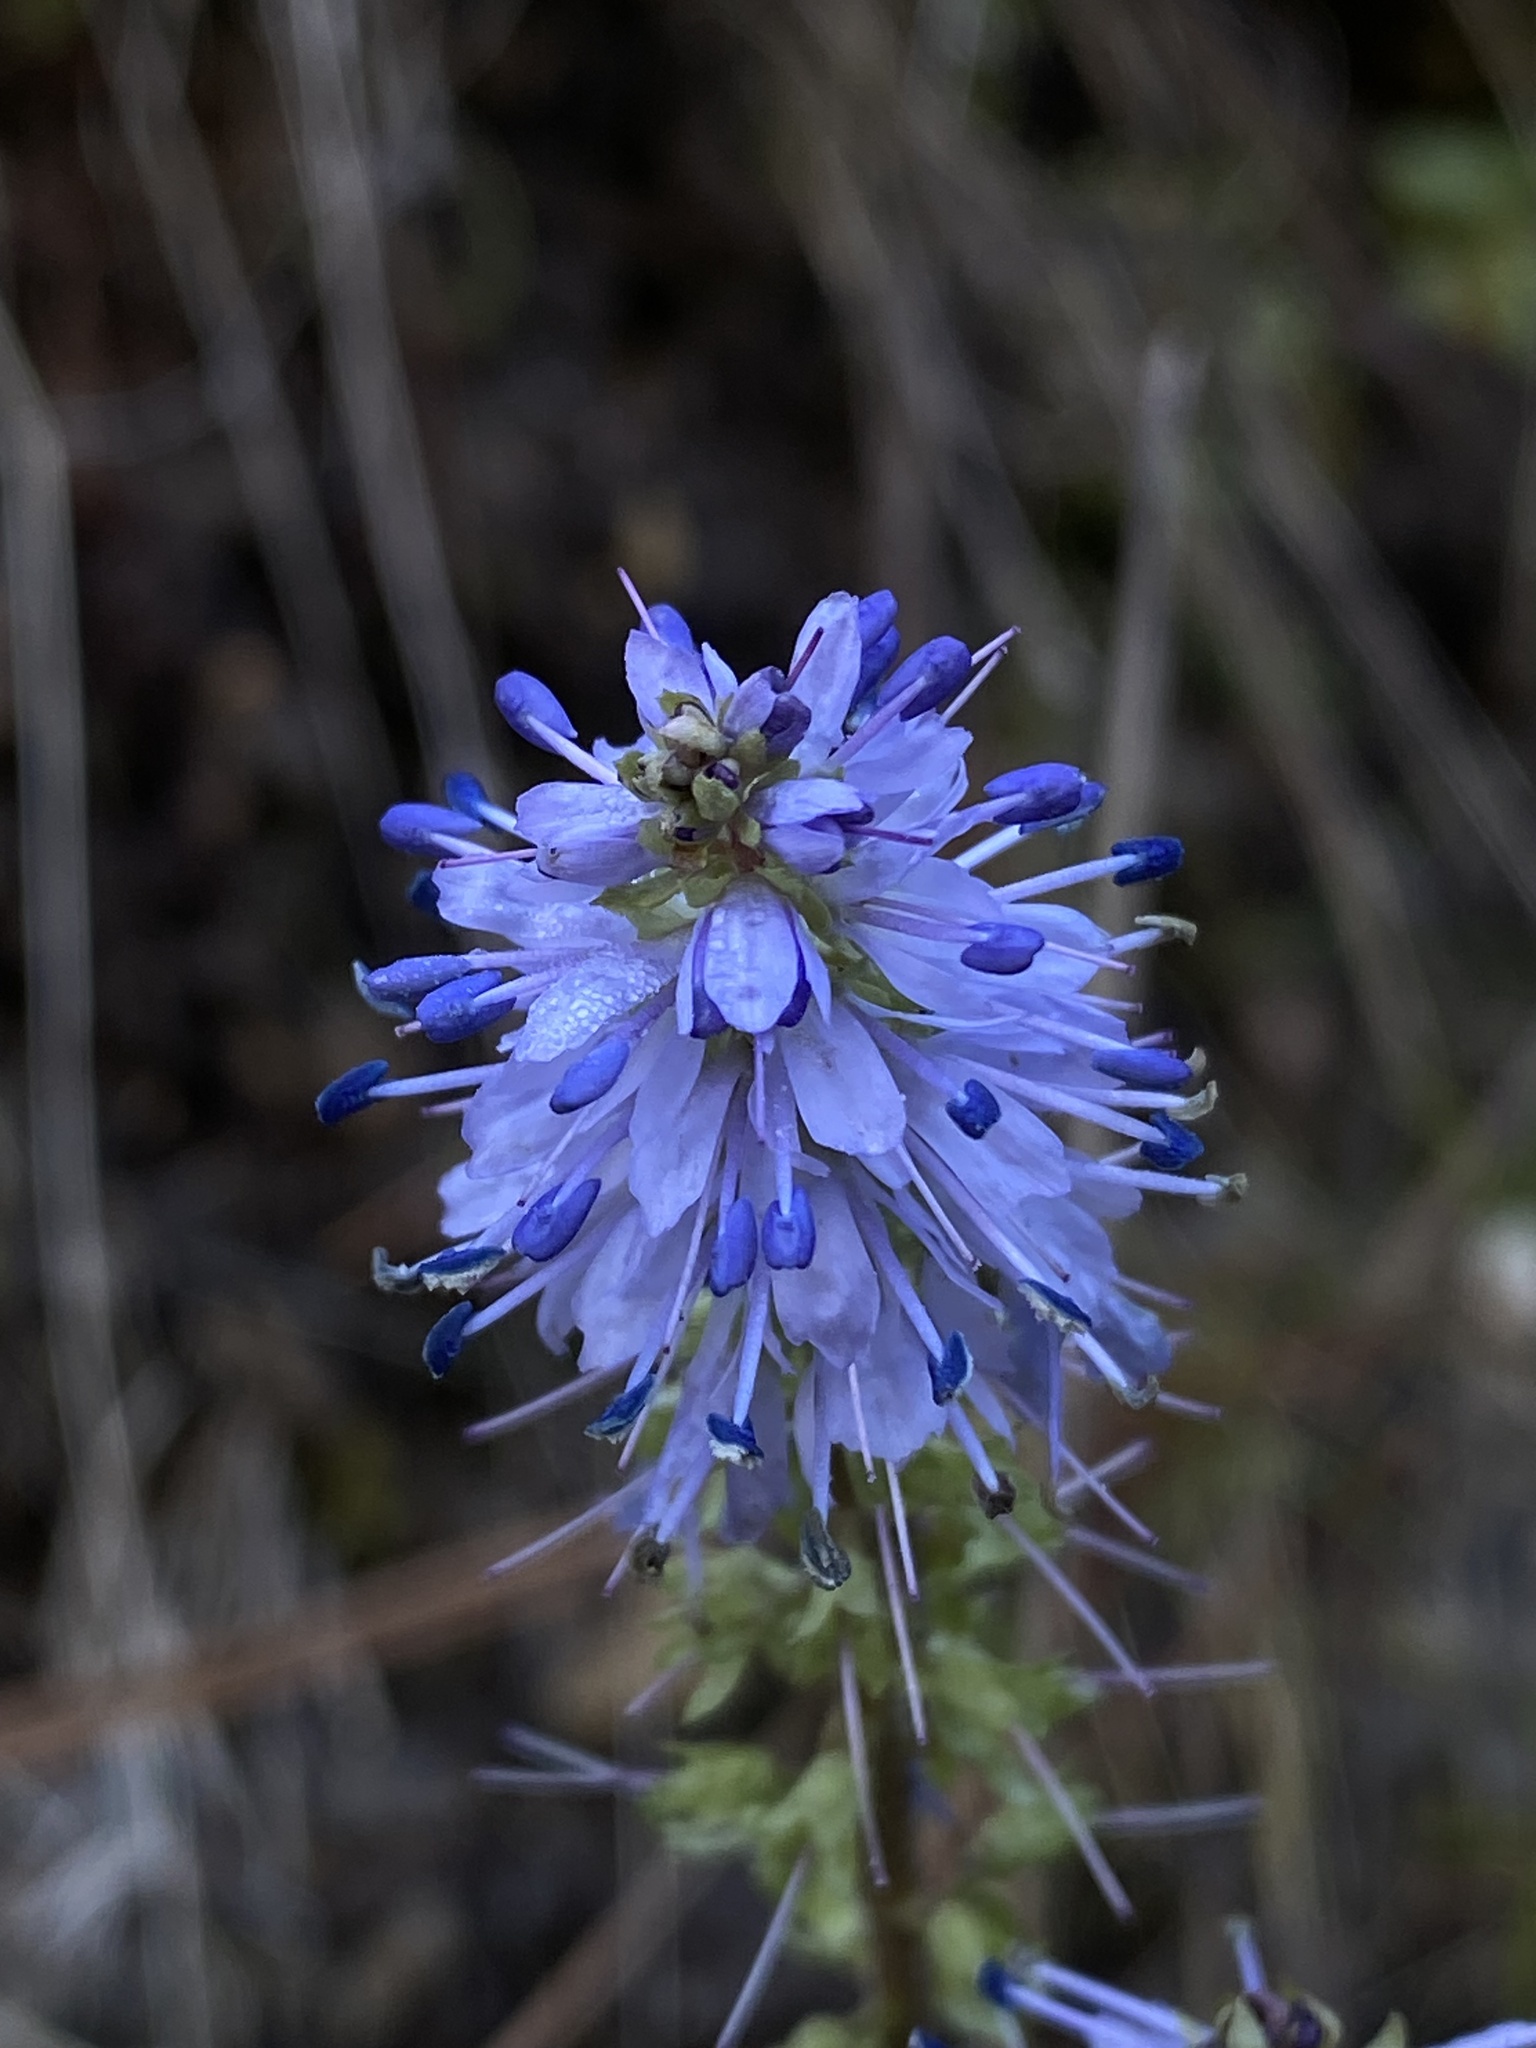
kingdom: Plantae
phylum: Tracheophyta
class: Magnoliopsida
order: Lamiales
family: Plantaginaceae
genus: Synthyris
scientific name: Synthyris missurica
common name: Kitten-tails
